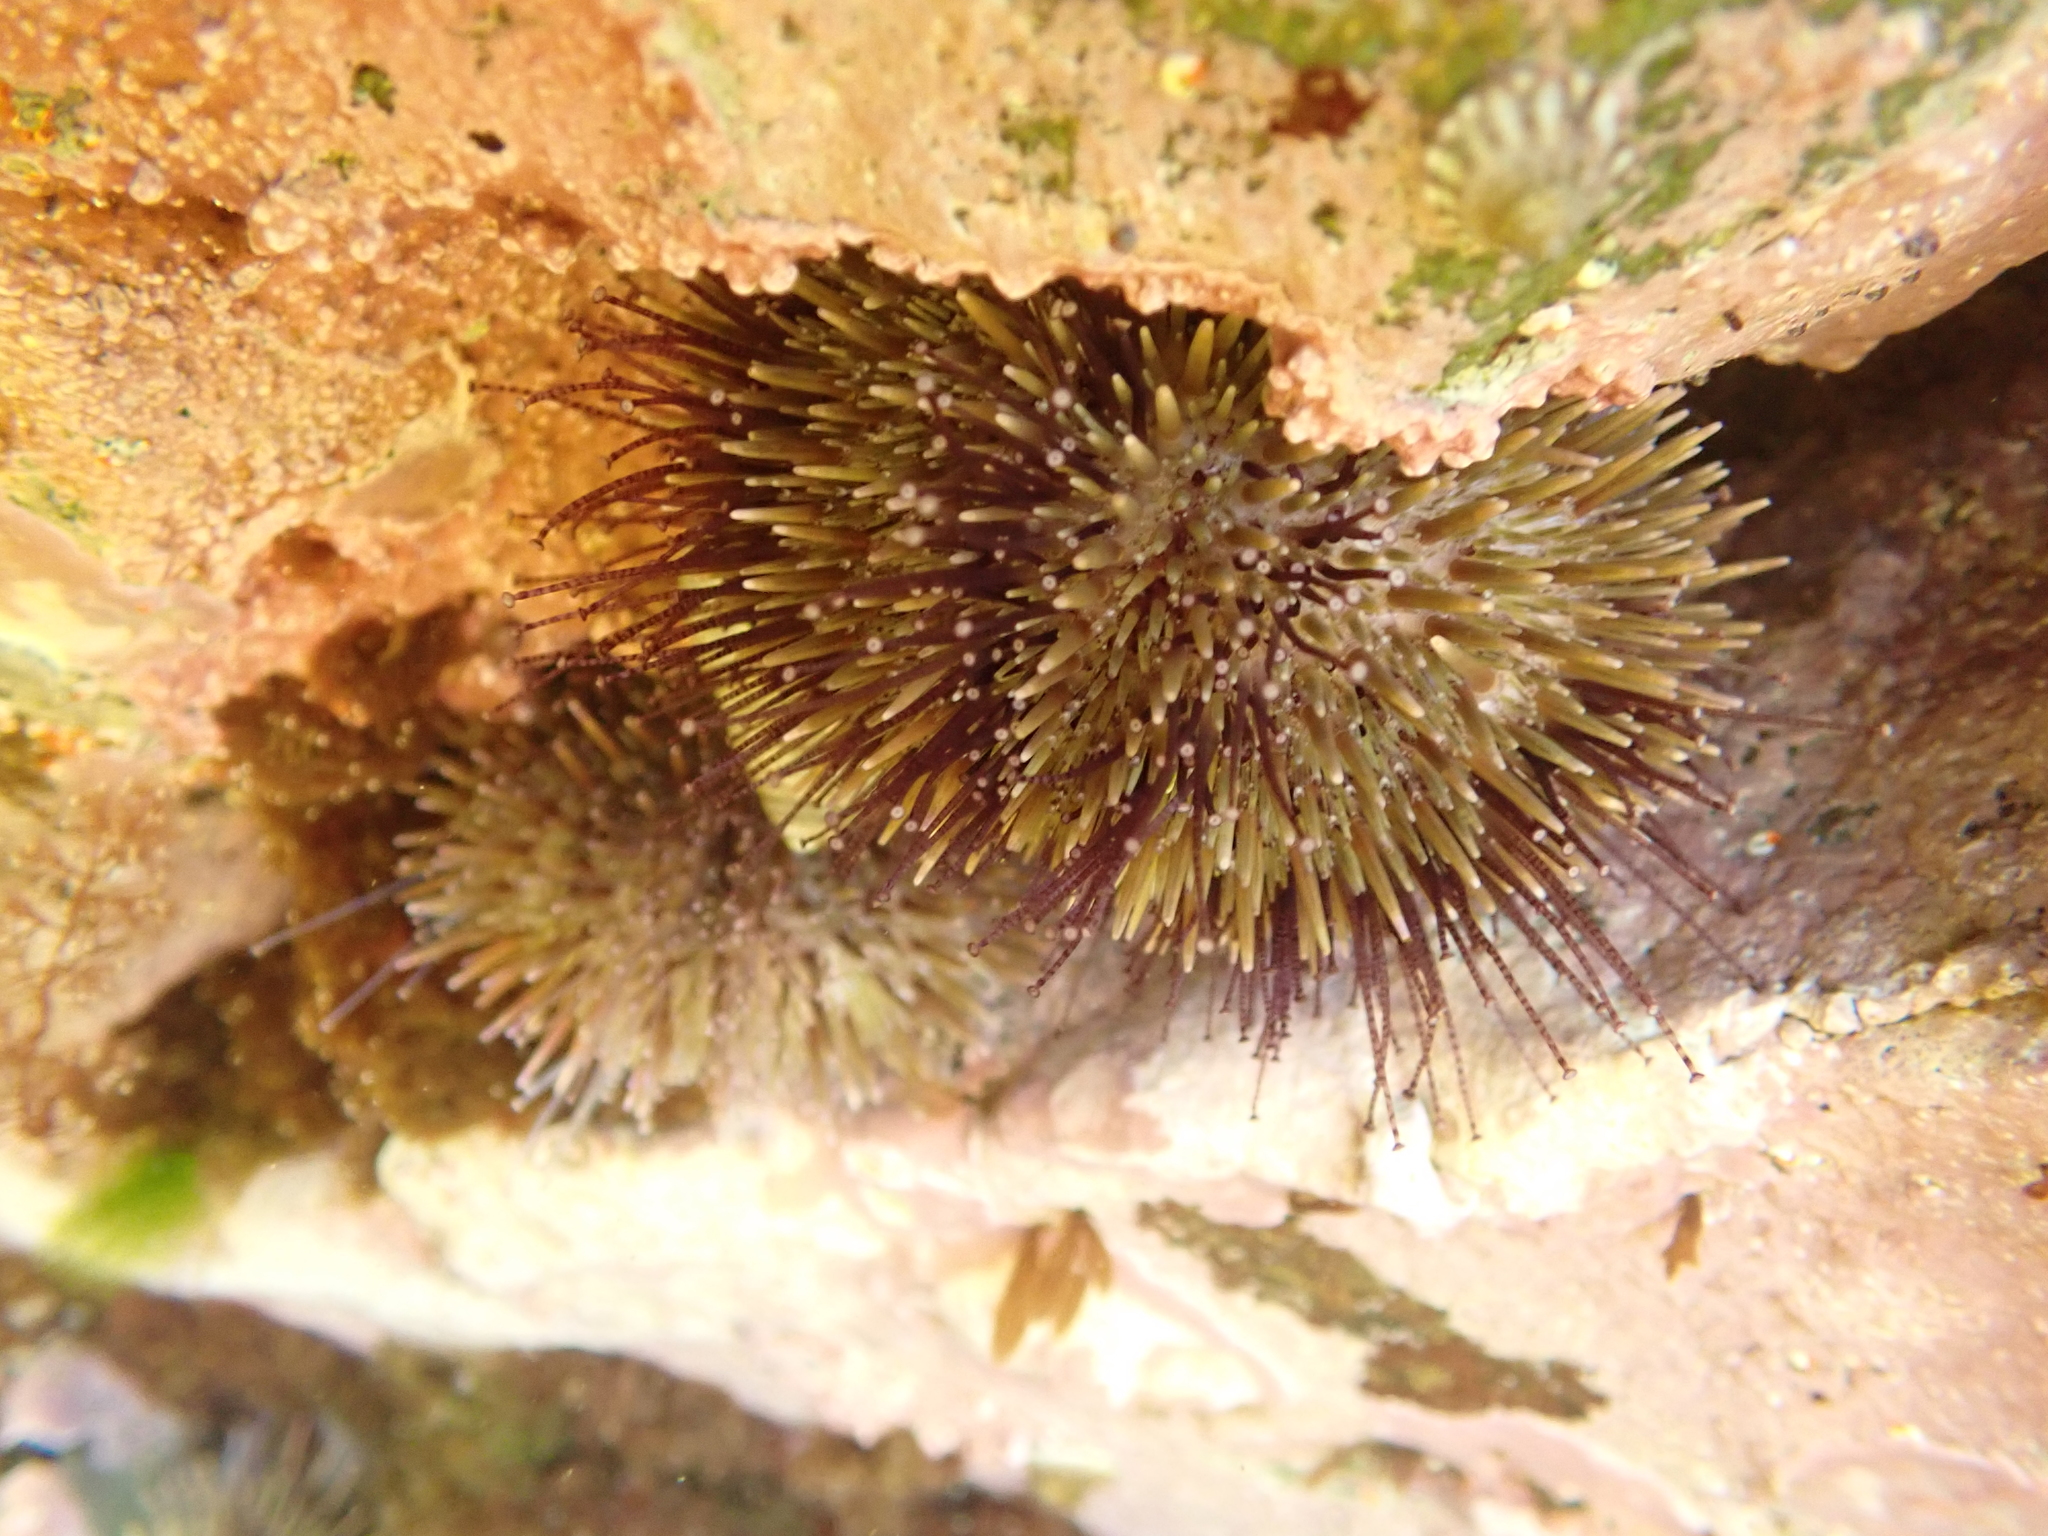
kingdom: Animalia
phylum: Echinodermata
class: Echinoidea
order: Camarodonta
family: Strongylocentrotidae
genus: Strongylocentrotus
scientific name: Strongylocentrotus droebachiensis
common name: Northern sea urchin
